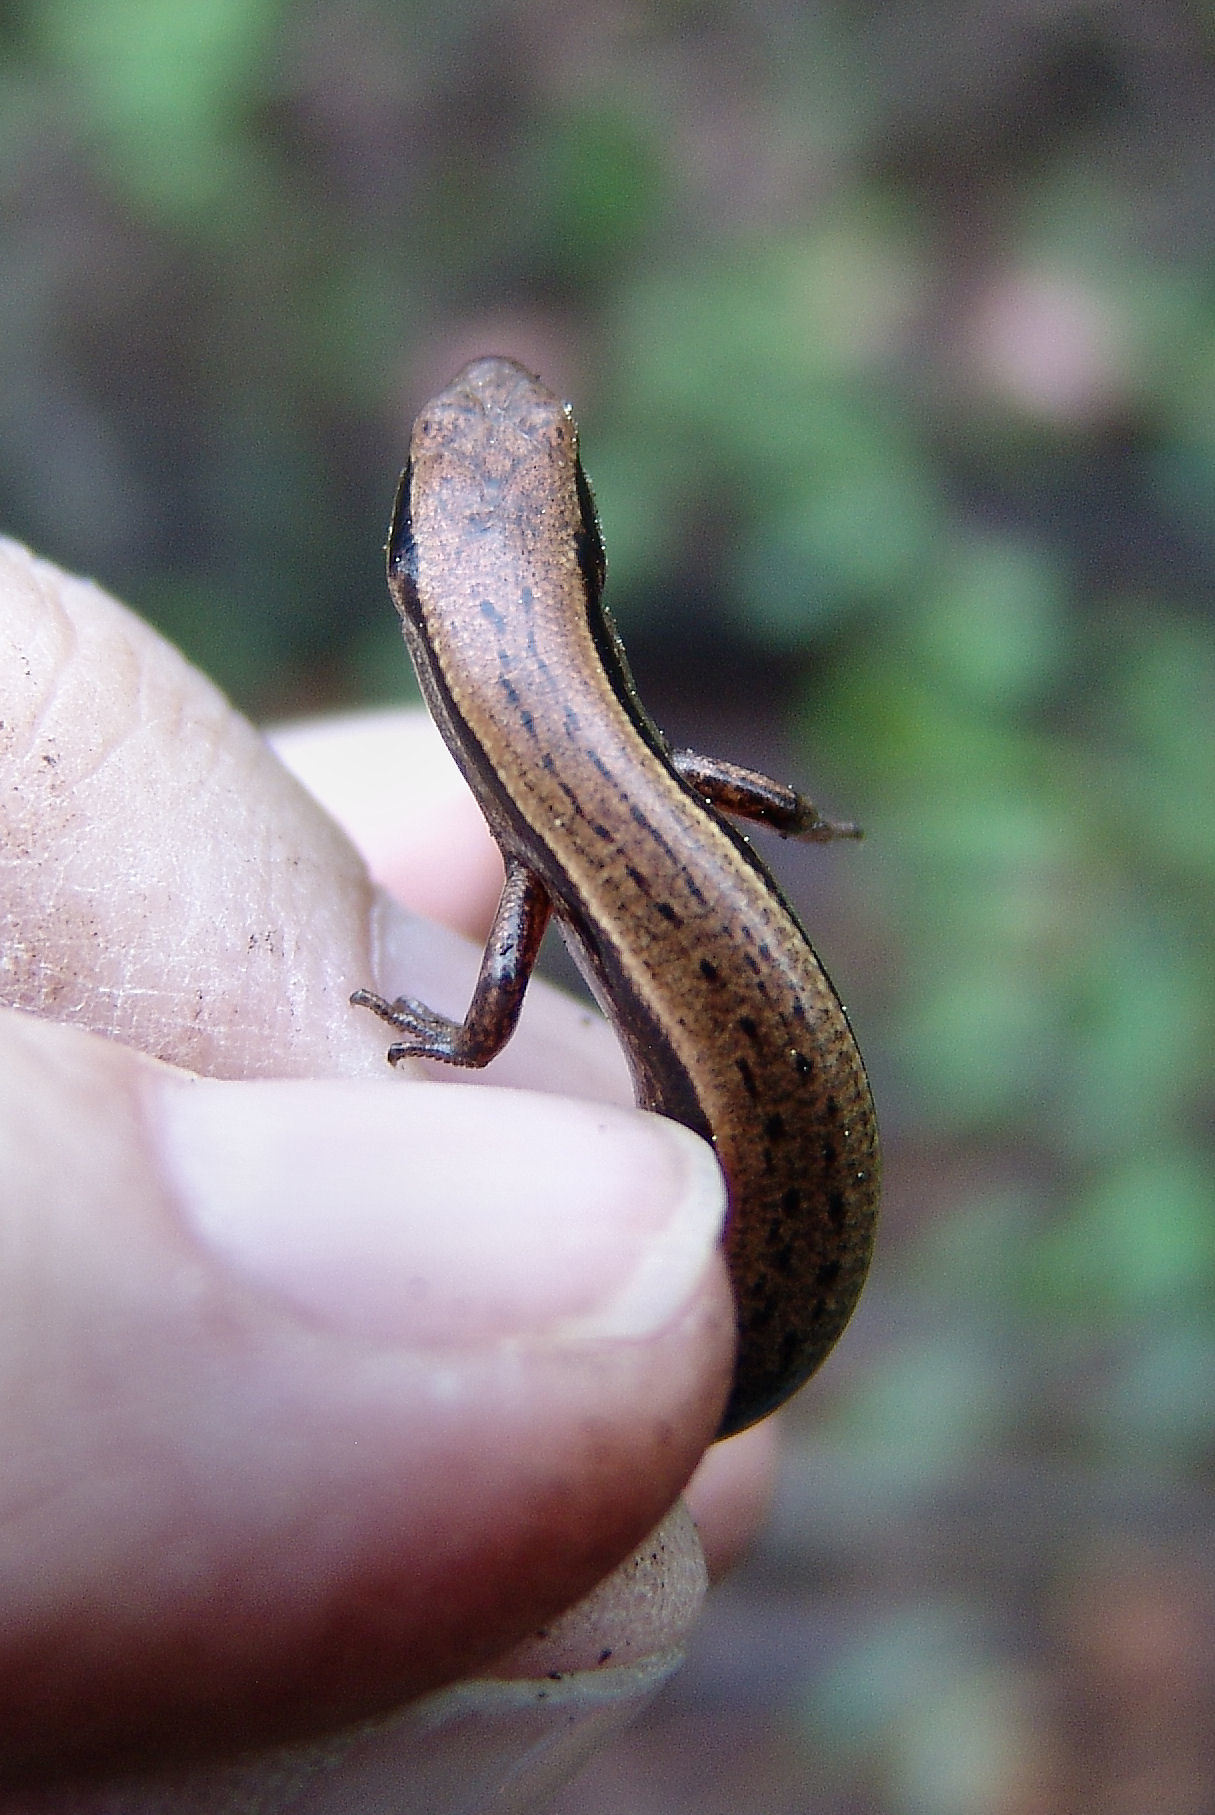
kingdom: Animalia
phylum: Chordata
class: Squamata
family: Scincidae
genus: Scincella
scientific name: Scincella lateralis
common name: Ground skink
